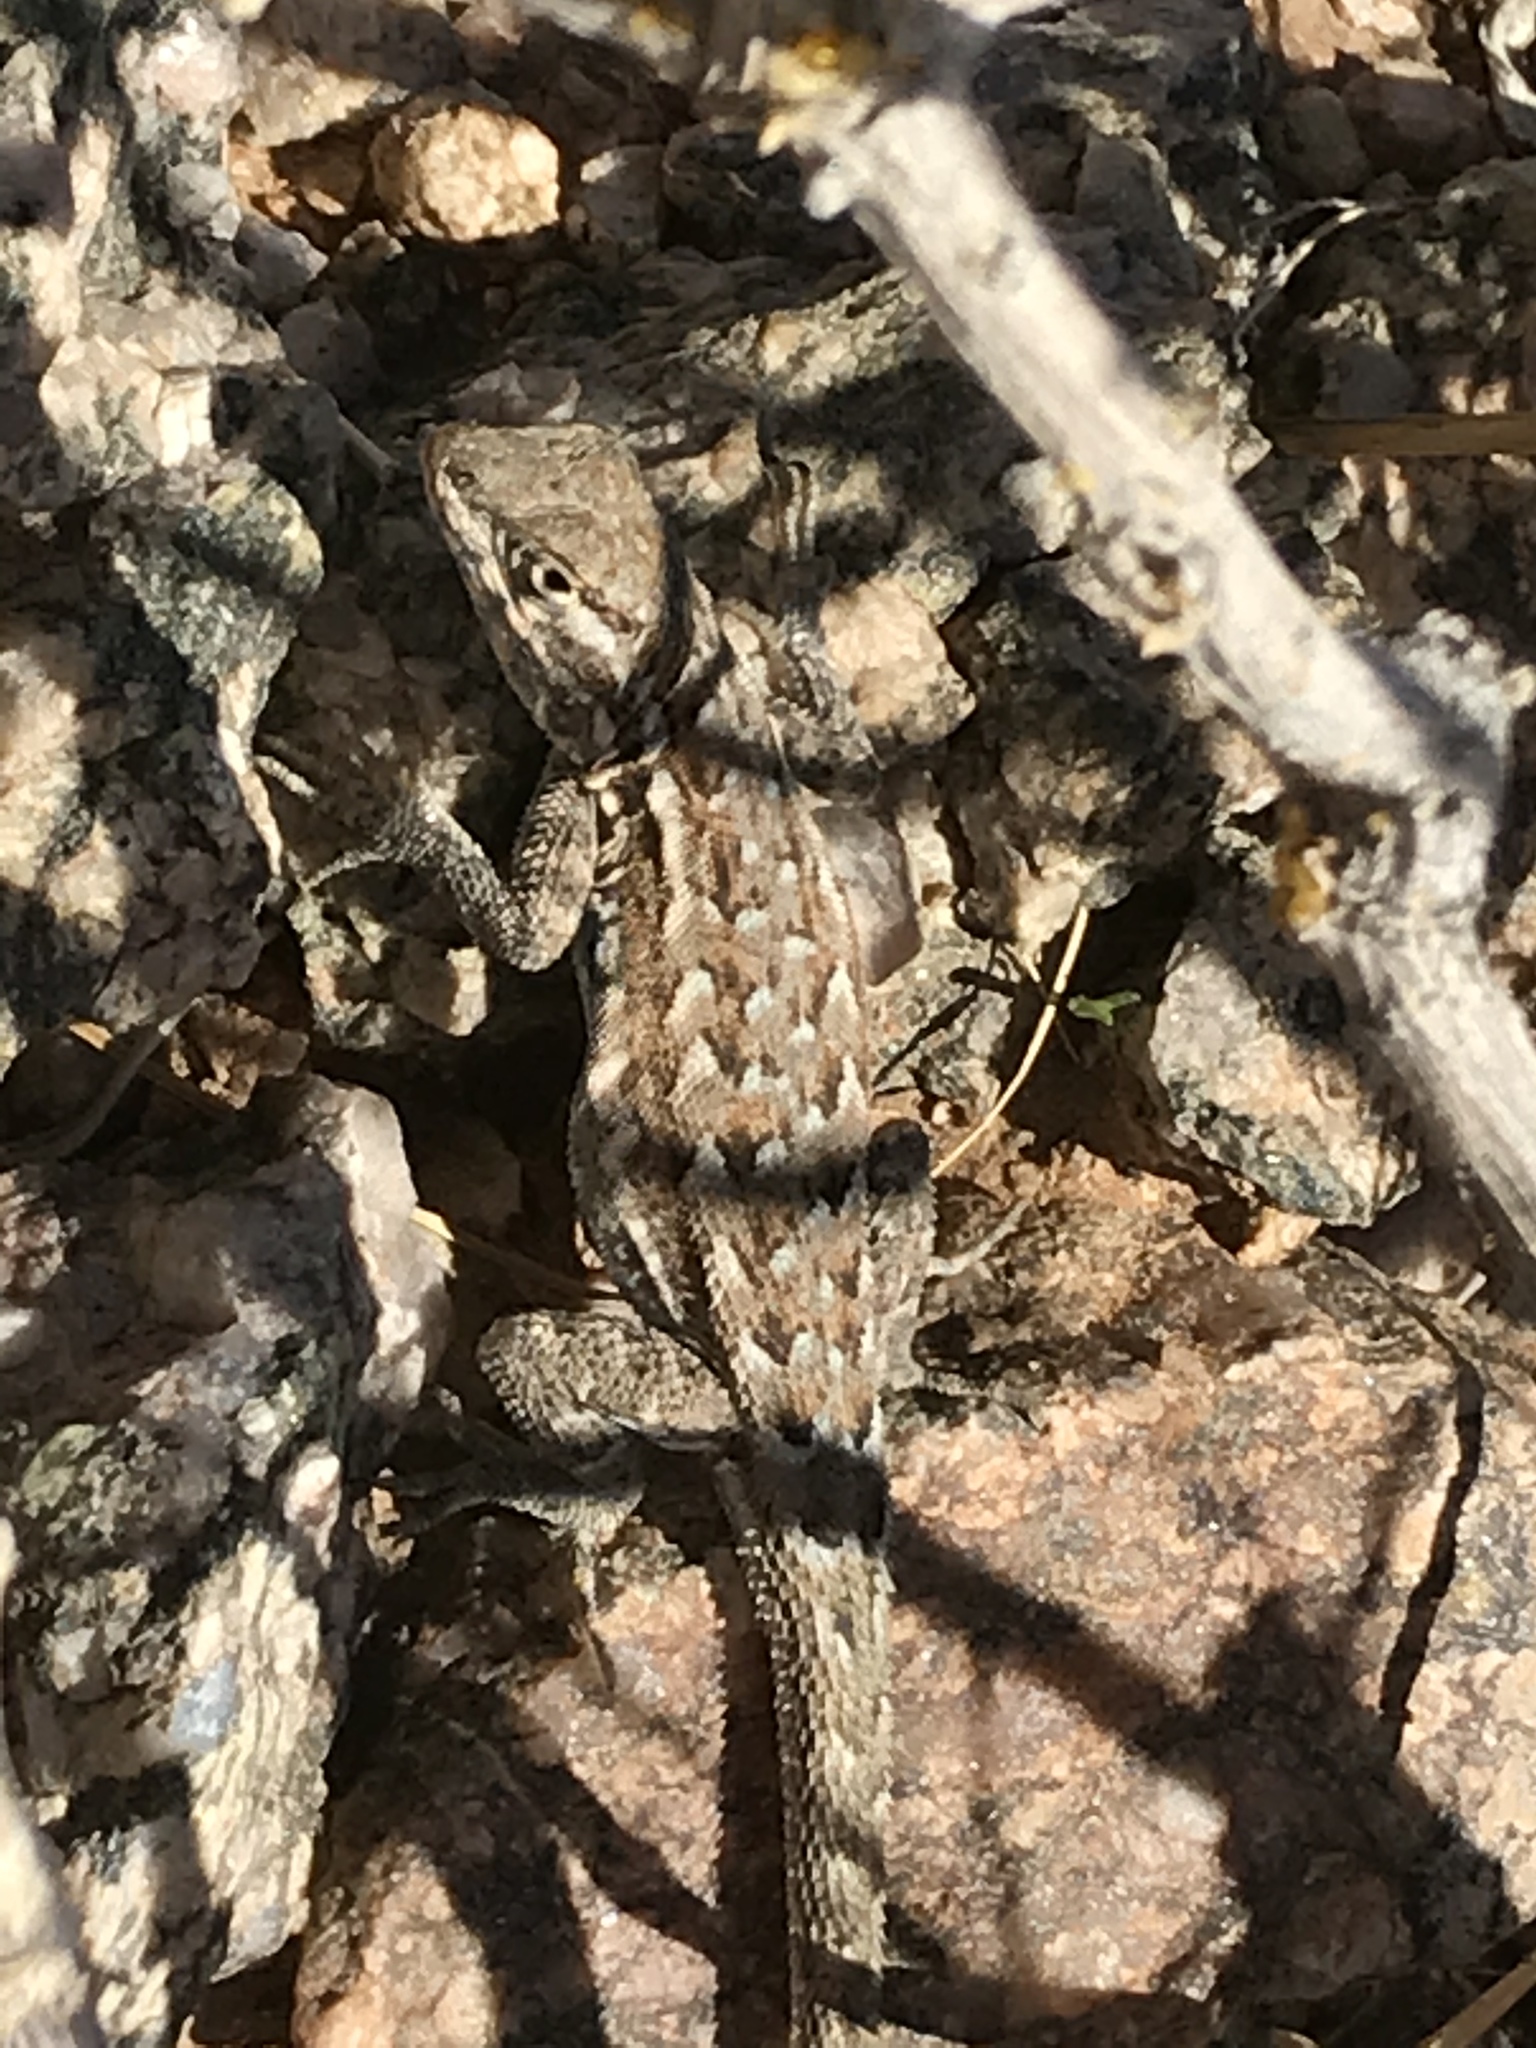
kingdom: Animalia
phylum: Chordata
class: Squamata
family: Phrynosomatidae
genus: Uta
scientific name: Uta stansburiana
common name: Side-blotched lizard
